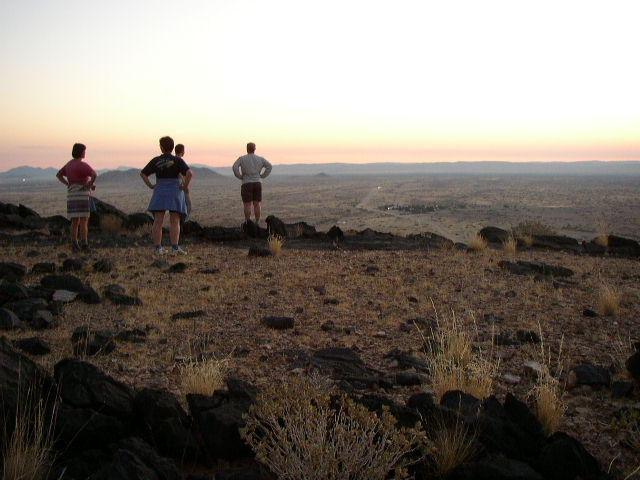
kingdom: Plantae
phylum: Tracheophyta
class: Magnoliopsida
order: Lamiales
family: Acanthaceae
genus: Pogonospermum
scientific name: Pogonospermum
